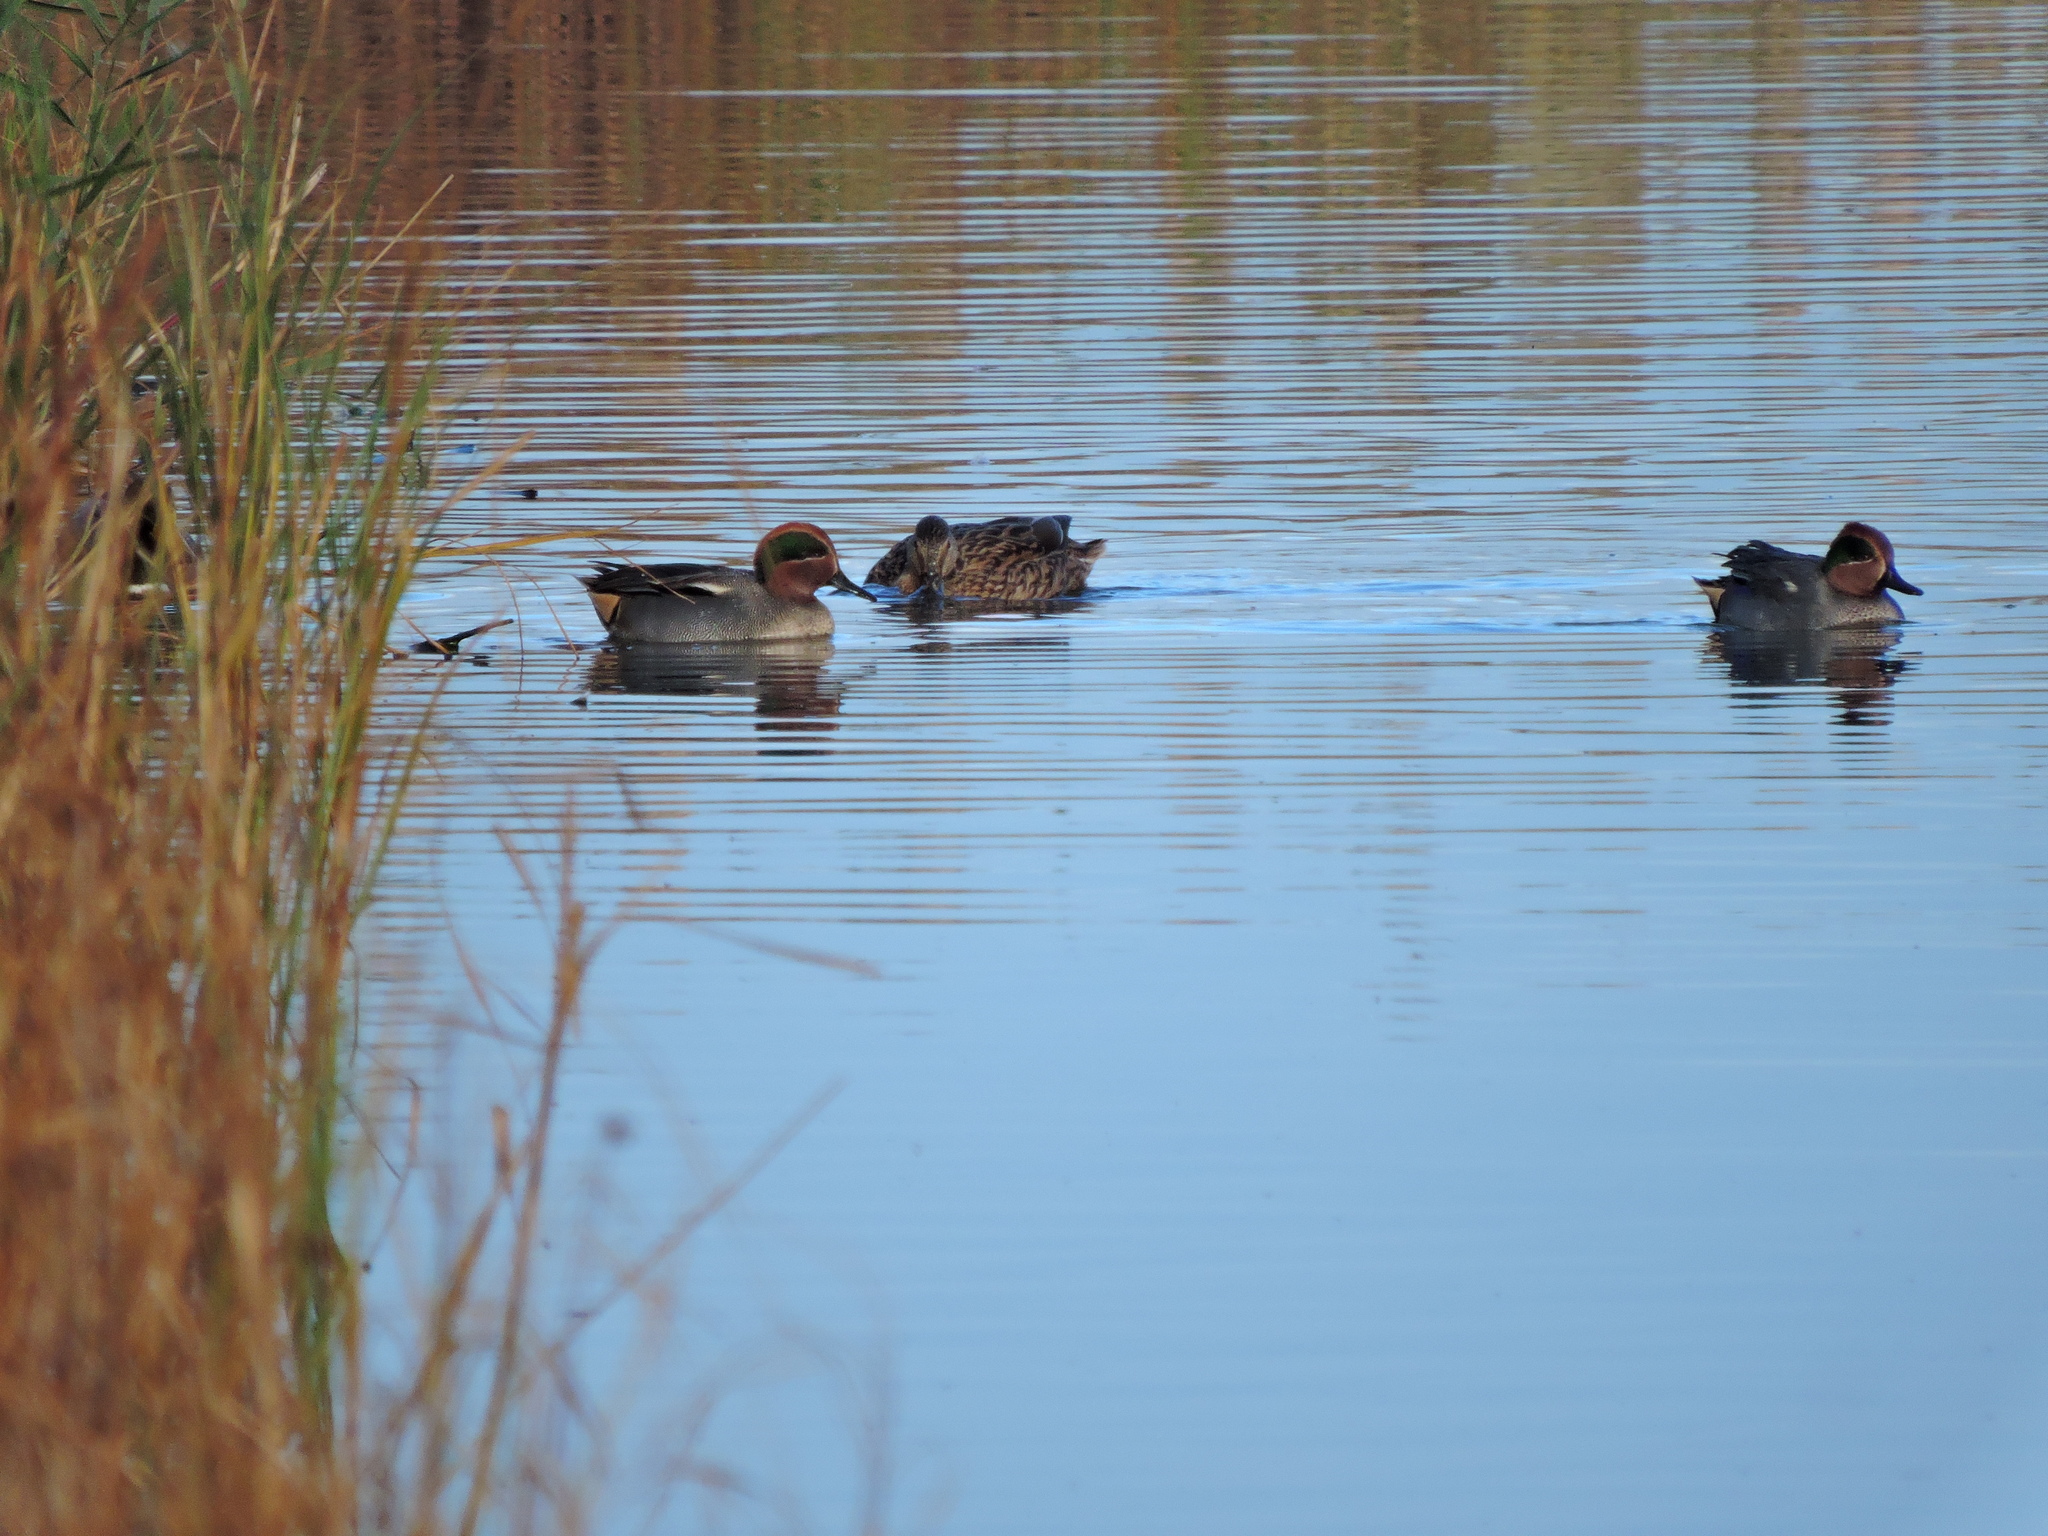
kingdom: Animalia
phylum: Chordata
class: Aves
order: Anseriformes
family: Anatidae
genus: Anas
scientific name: Anas crecca
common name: Eurasian teal
